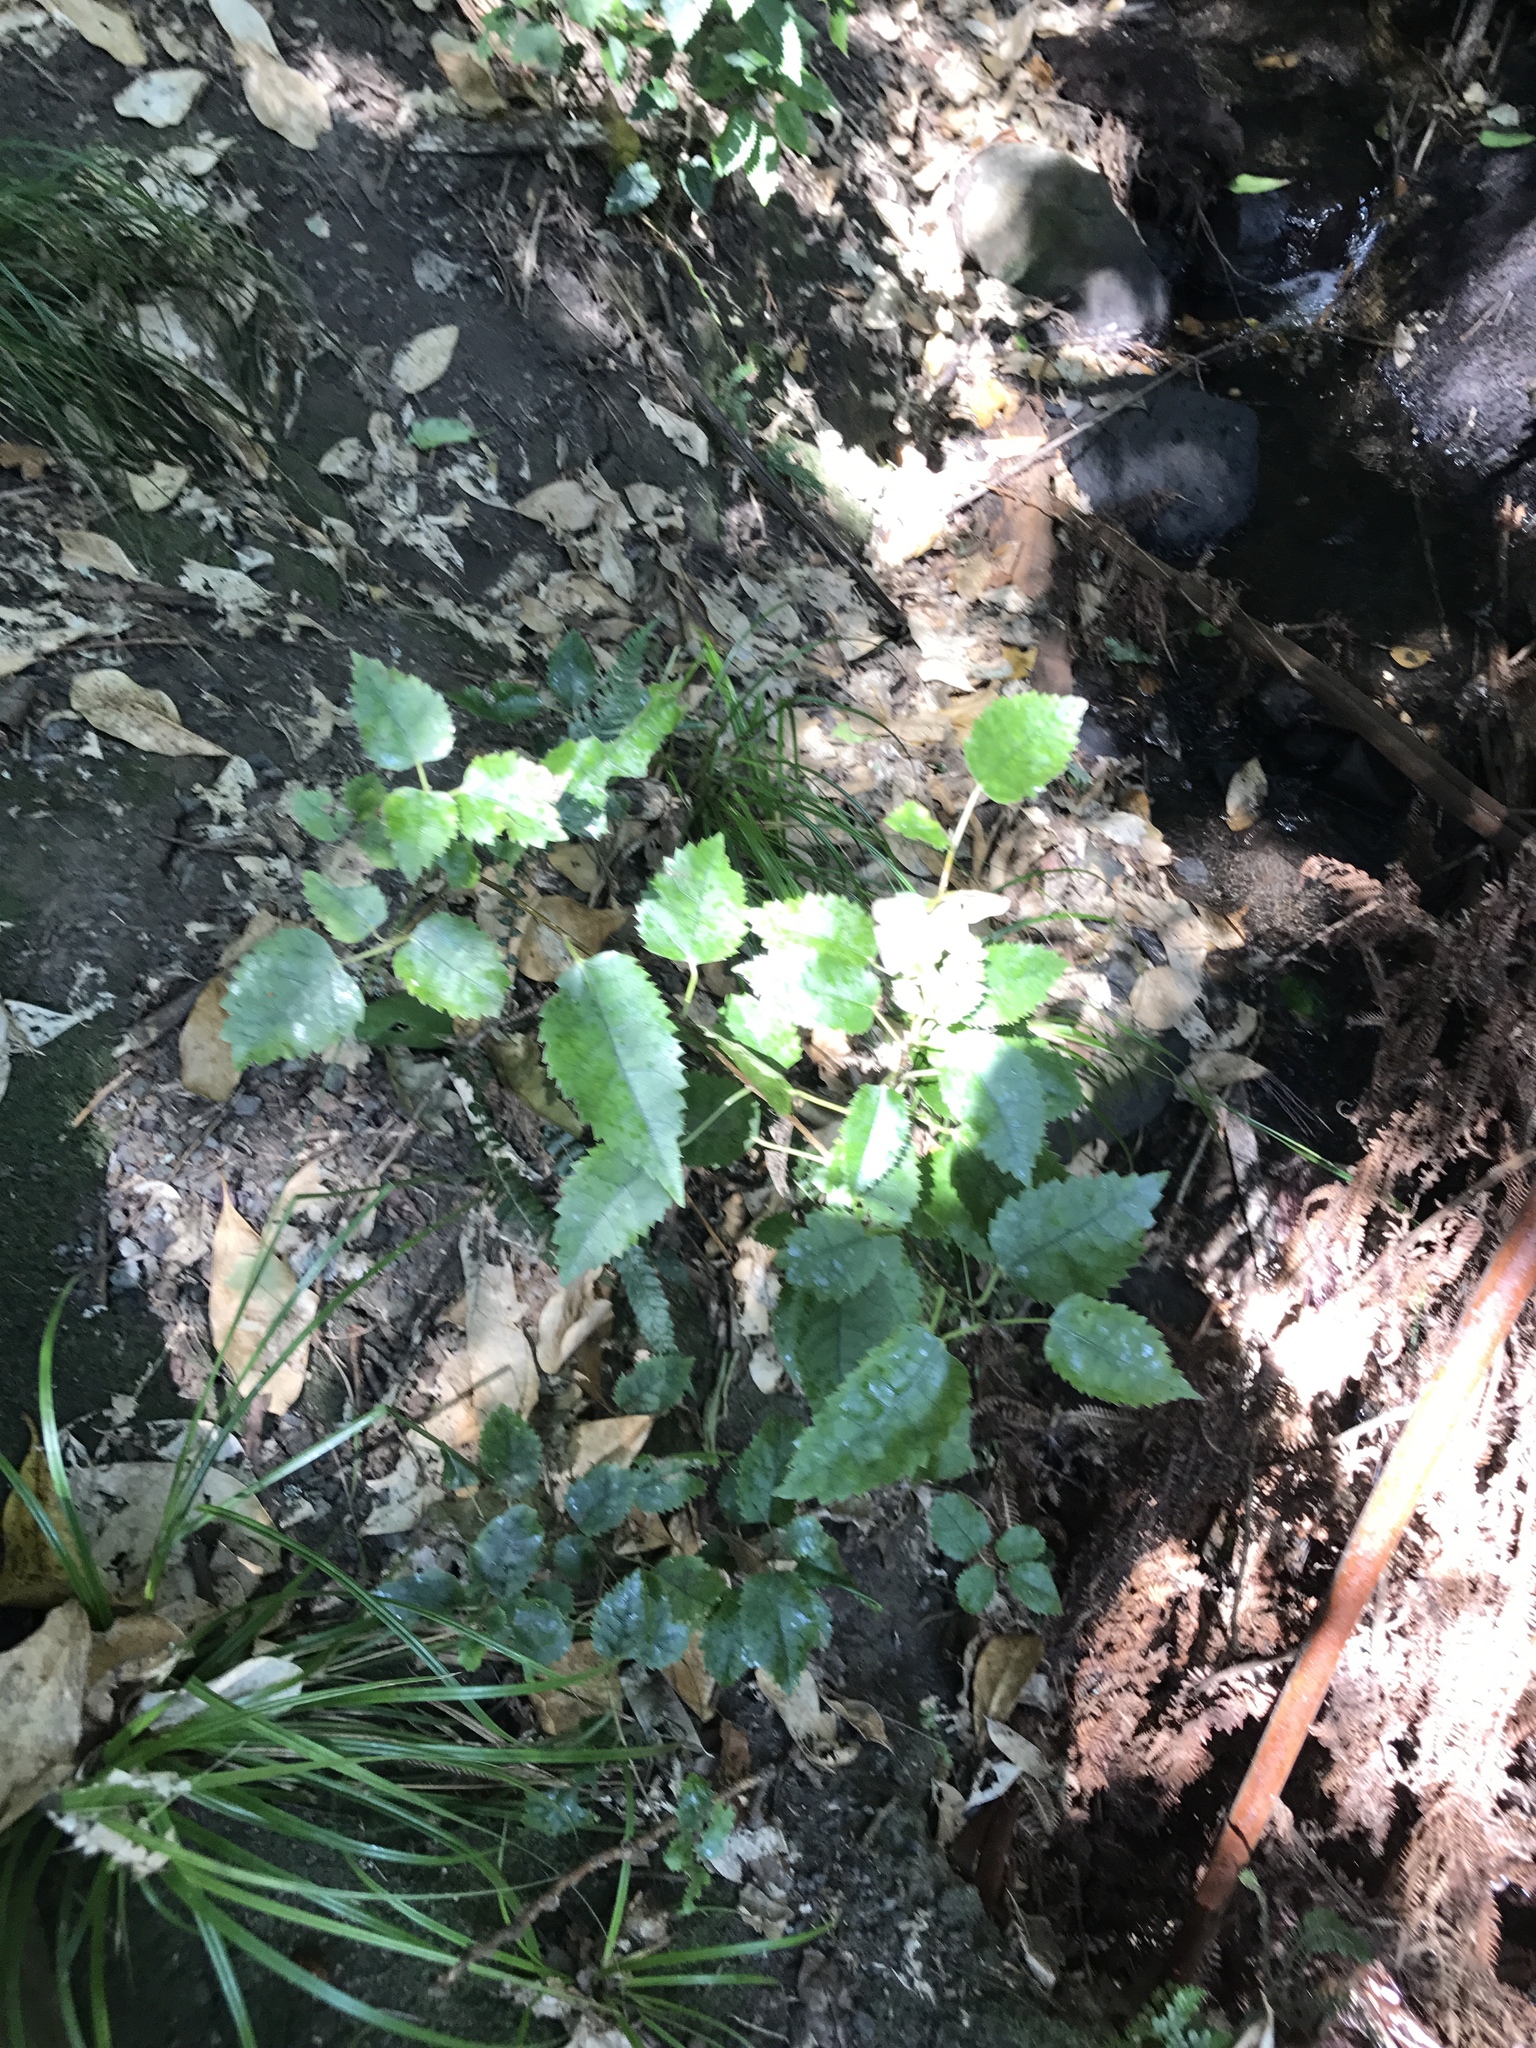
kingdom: Plantae
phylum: Tracheophyta
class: Magnoliopsida
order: Malvales
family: Malvaceae
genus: Hoheria
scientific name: Hoheria populnea
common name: Lacebark
